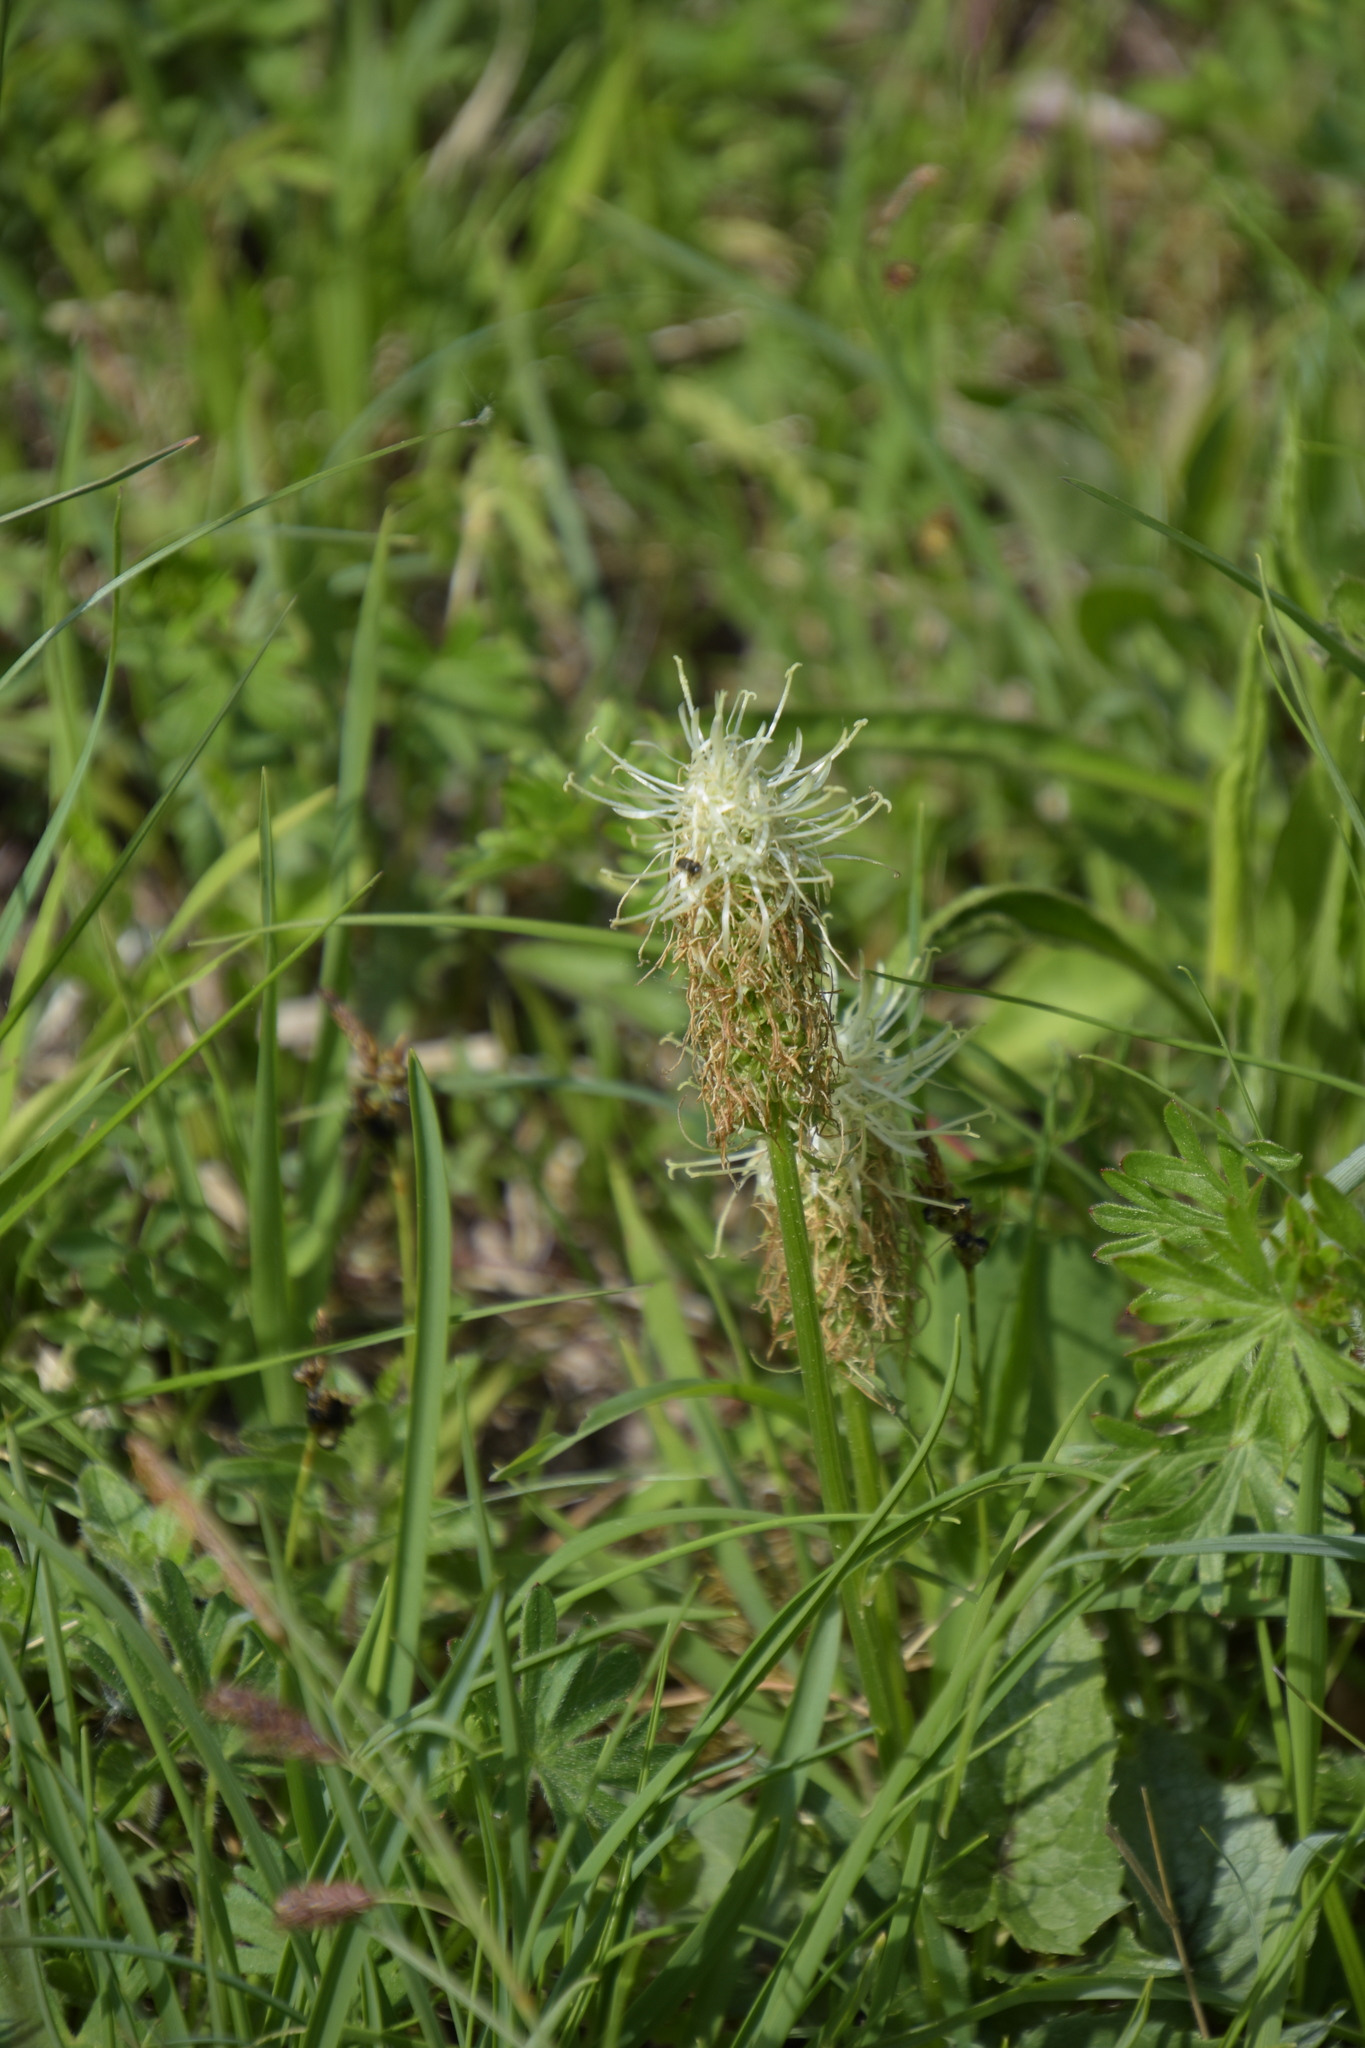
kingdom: Plantae
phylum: Tracheophyta
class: Magnoliopsida
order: Asterales
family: Campanulaceae
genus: Phyteuma
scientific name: Phyteuma spicatum
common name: Spiked rampion
